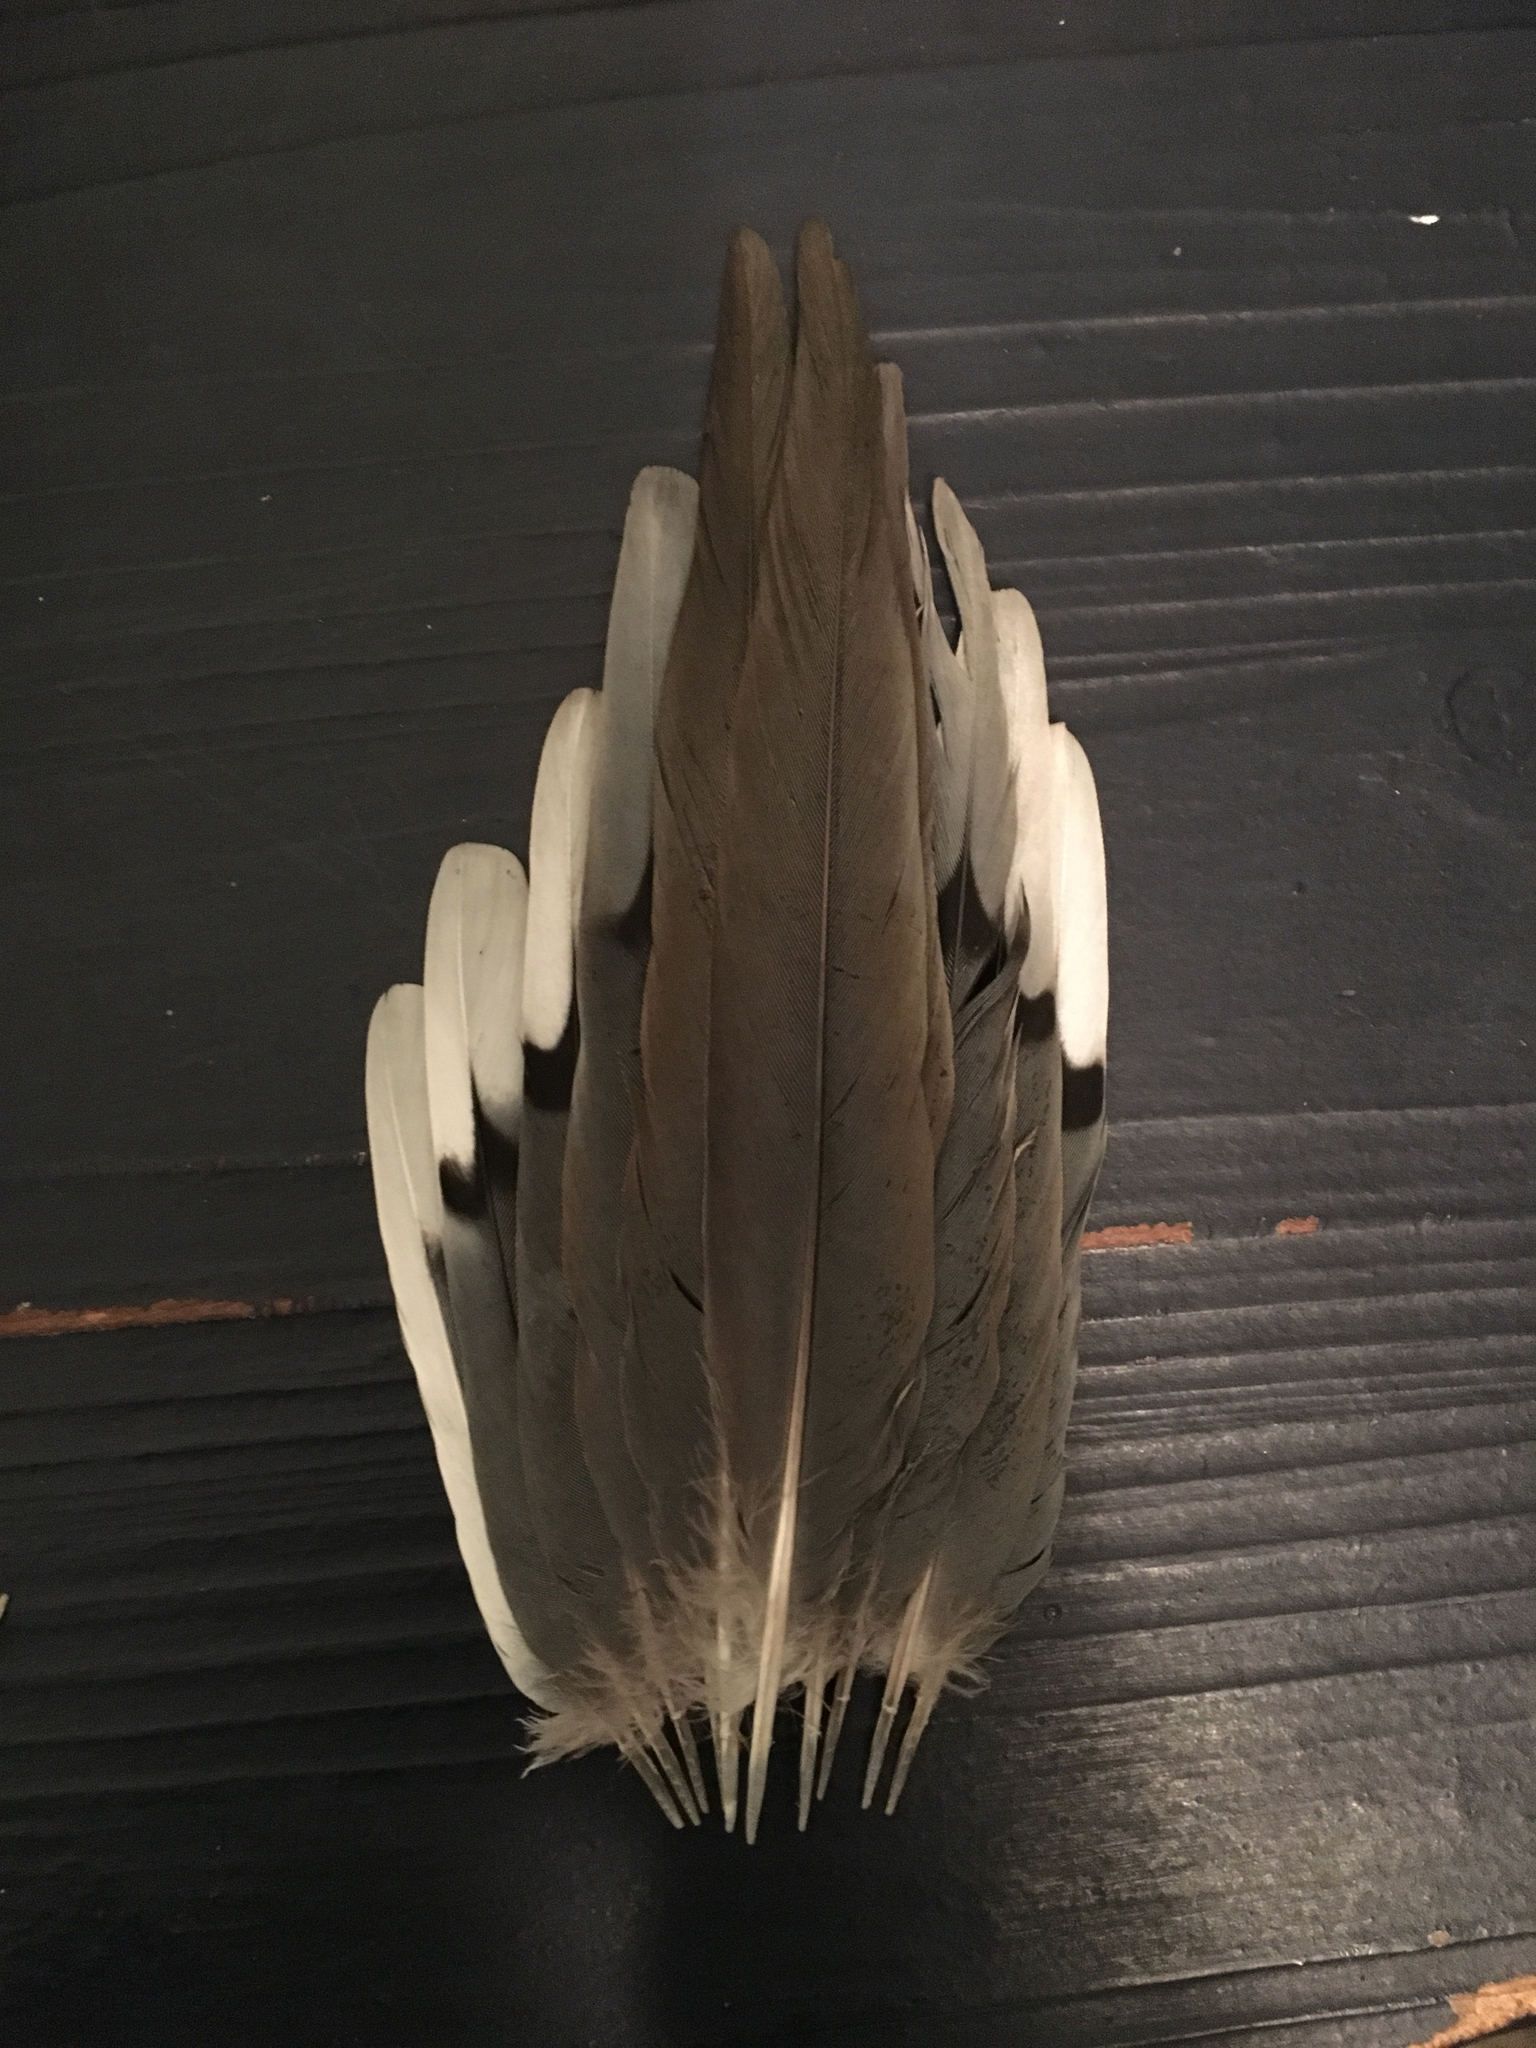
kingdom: Animalia
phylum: Chordata
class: Aves
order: Columbiformes
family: Columbidae
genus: Zenaida
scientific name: Zenaida macroura
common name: Mourning dove
